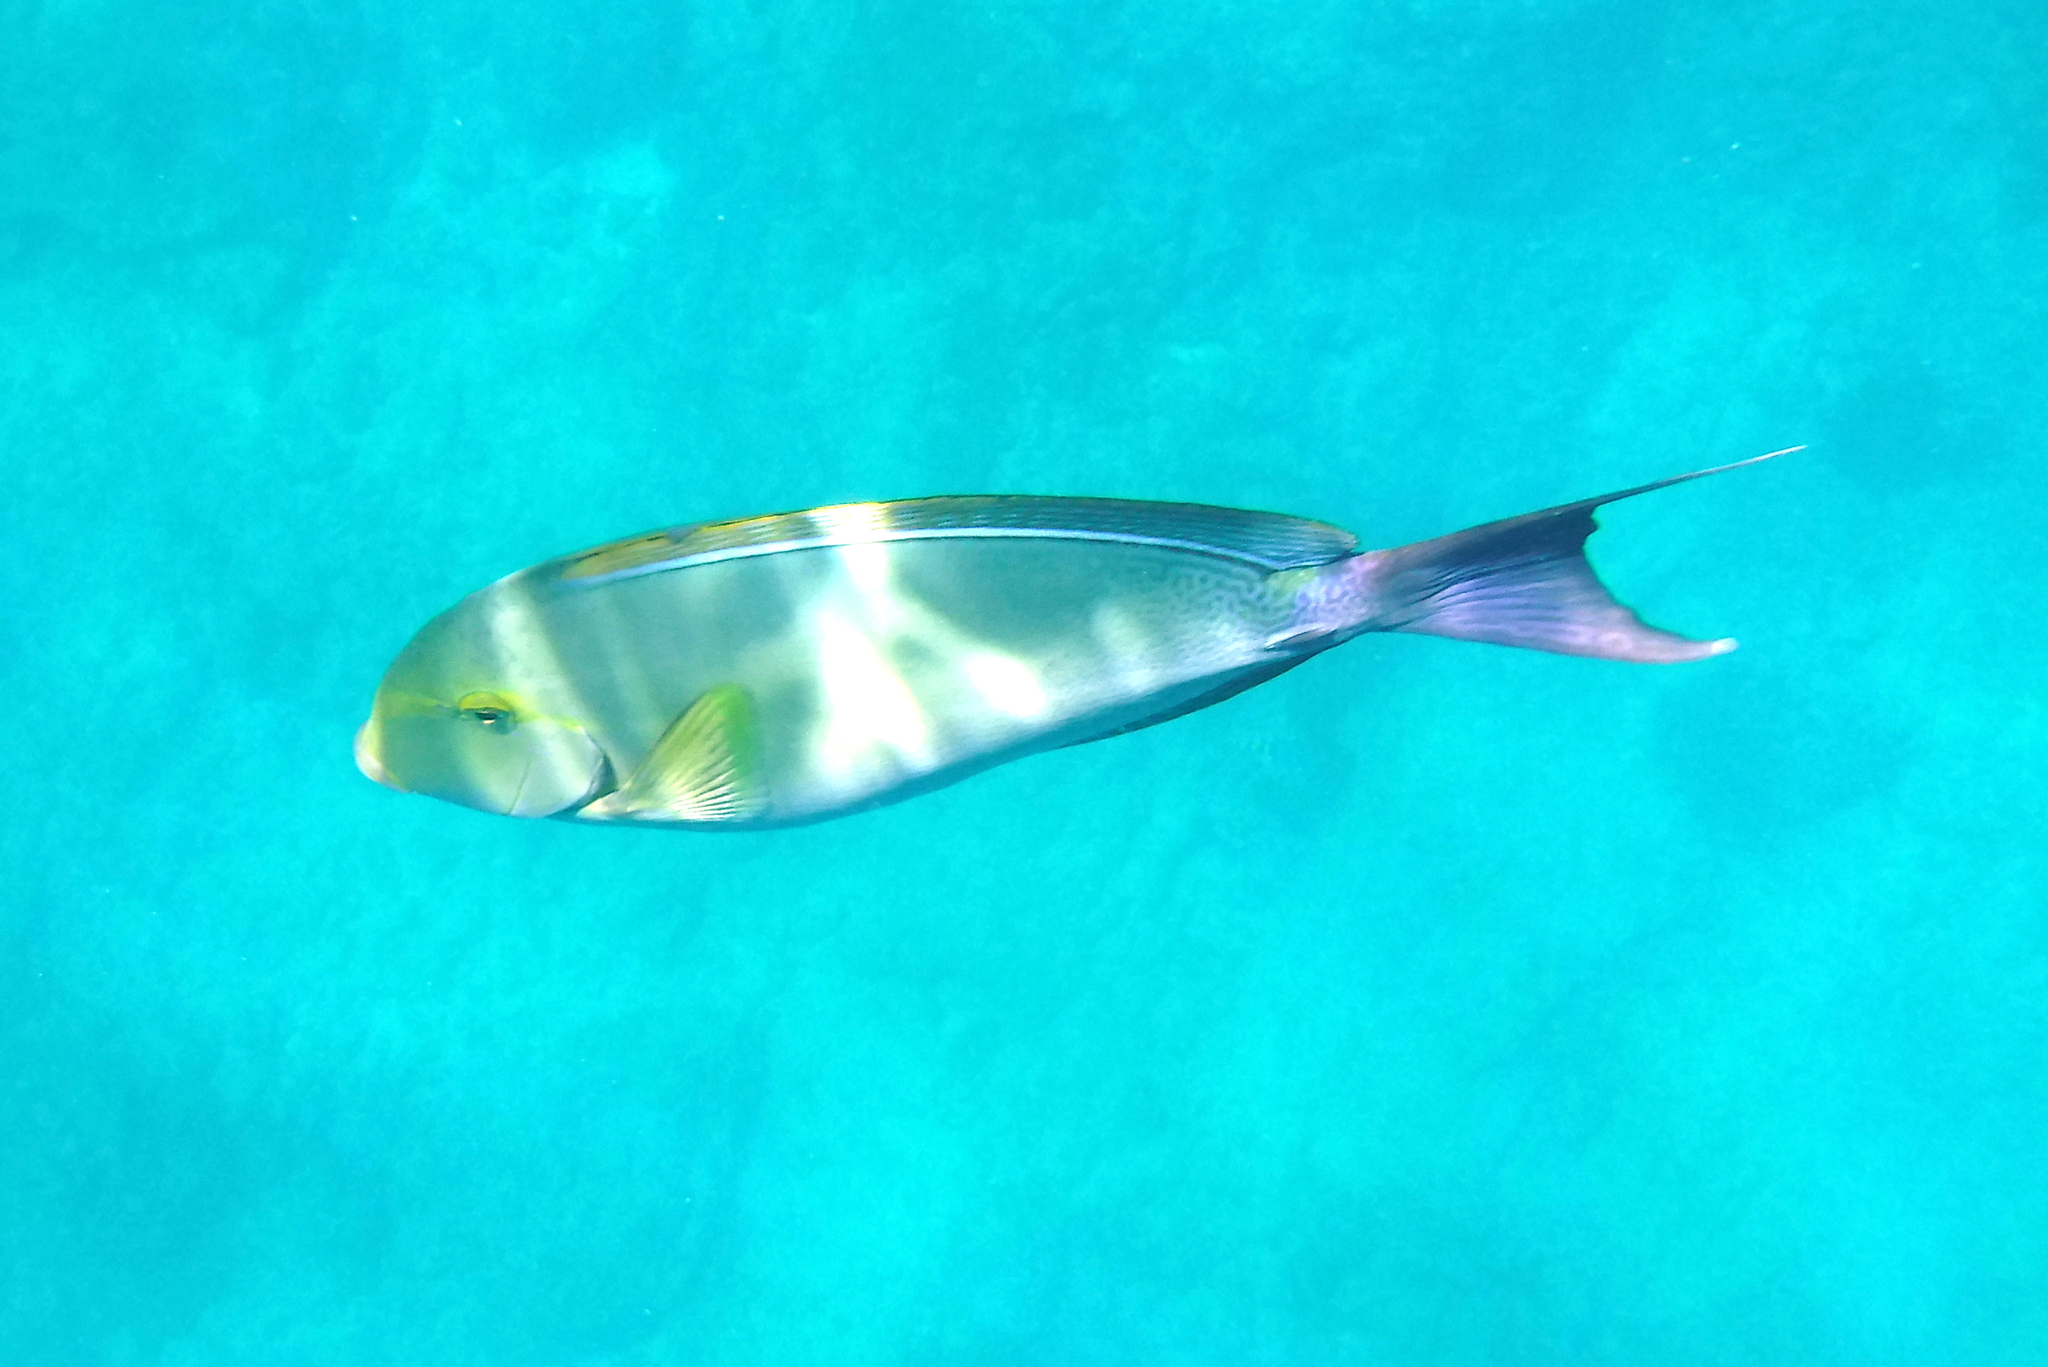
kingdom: Animalia
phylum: Chordata
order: Perciformes
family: Acanthuridae
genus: Acanthurus
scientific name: Acanthurus xanthopterus
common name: Cuvier's surgeonfish
